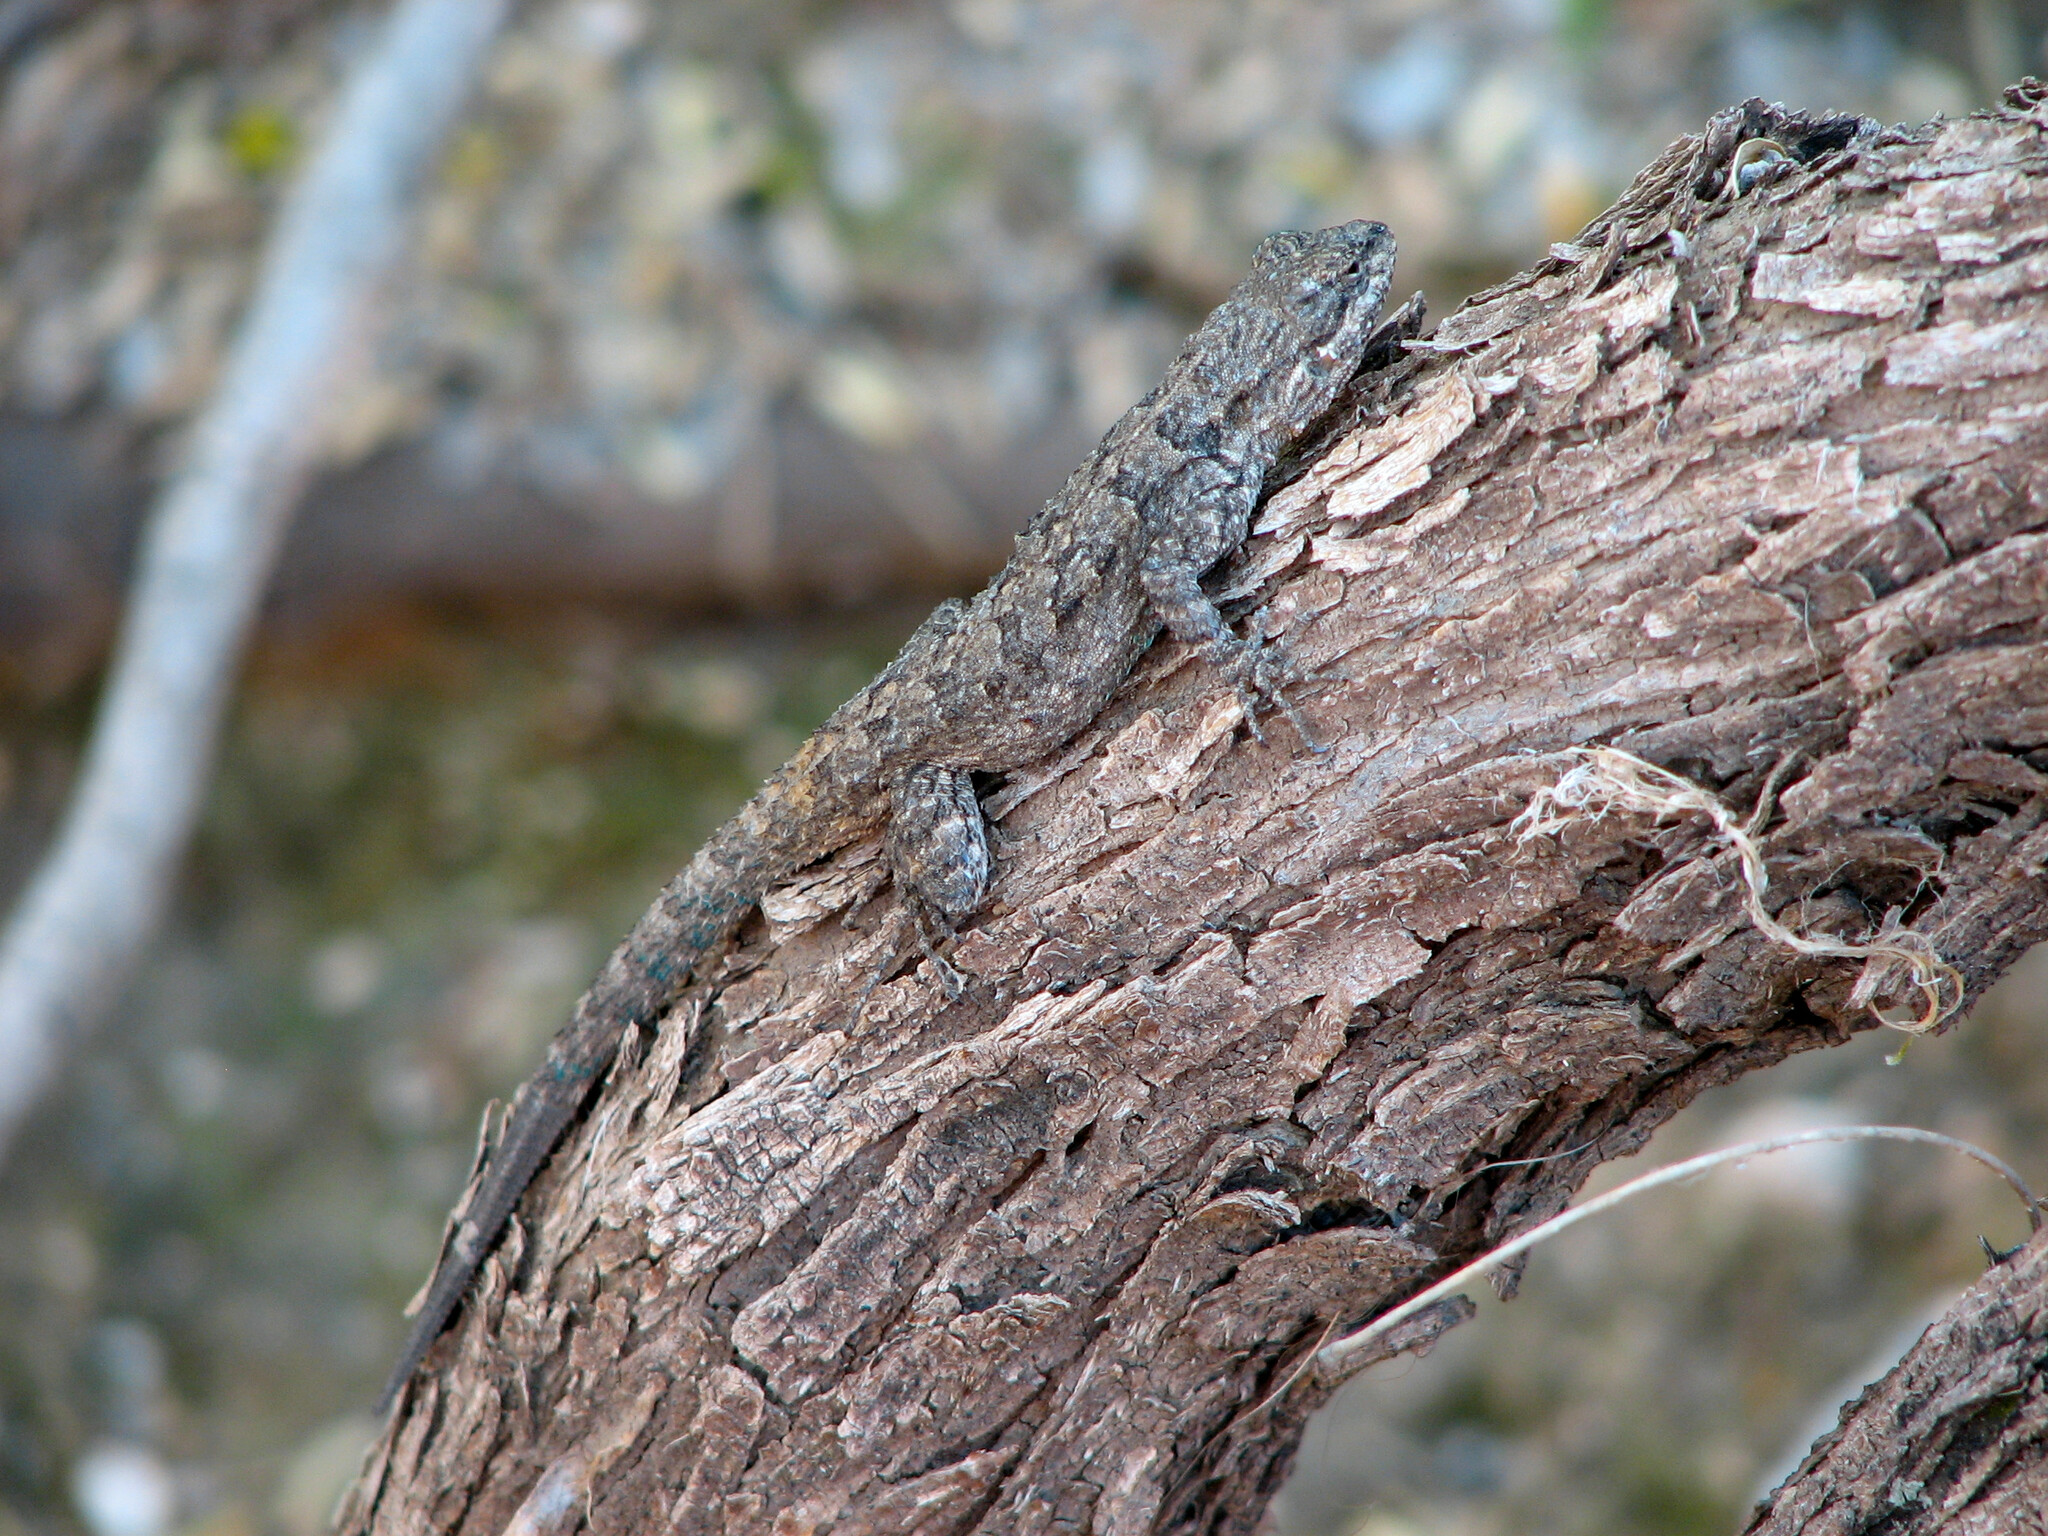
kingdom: Animalia
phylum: Chordata
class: Squamata
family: Phrynosomatidae
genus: Urosaurus
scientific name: Urosaurus ornatus
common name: Ornate tree lizard
